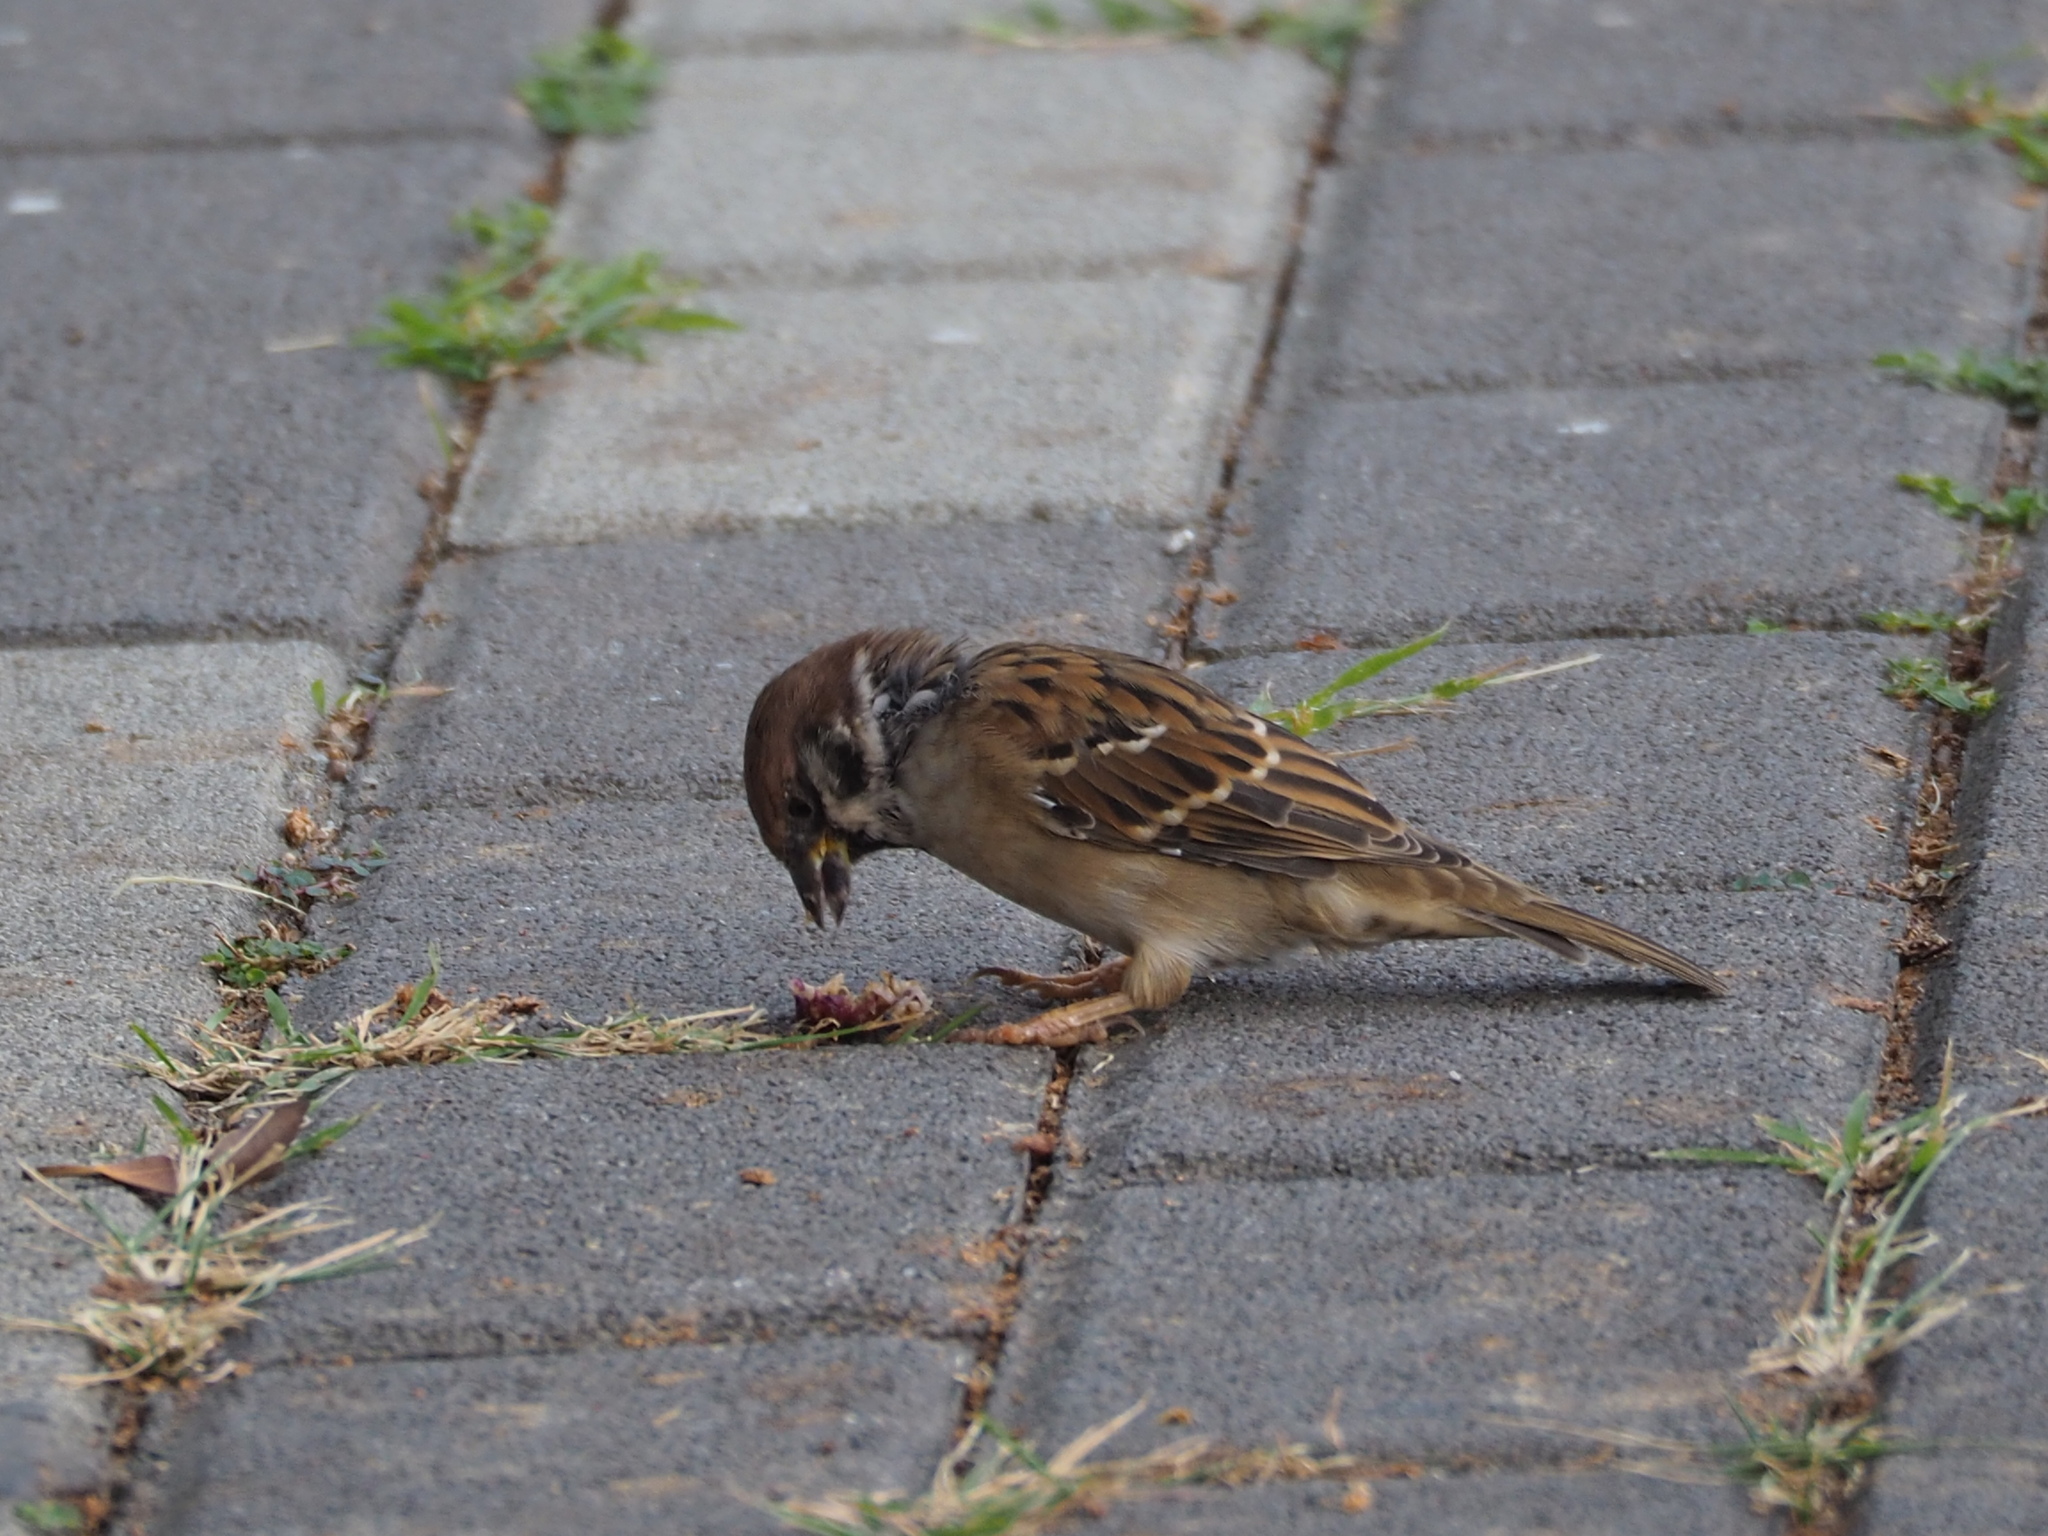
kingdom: Animalia
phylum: Chordata
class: Aves
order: Passeriformes
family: Passeridae
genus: Passer
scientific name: Passer montanus
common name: Eurasian tree sparrow
